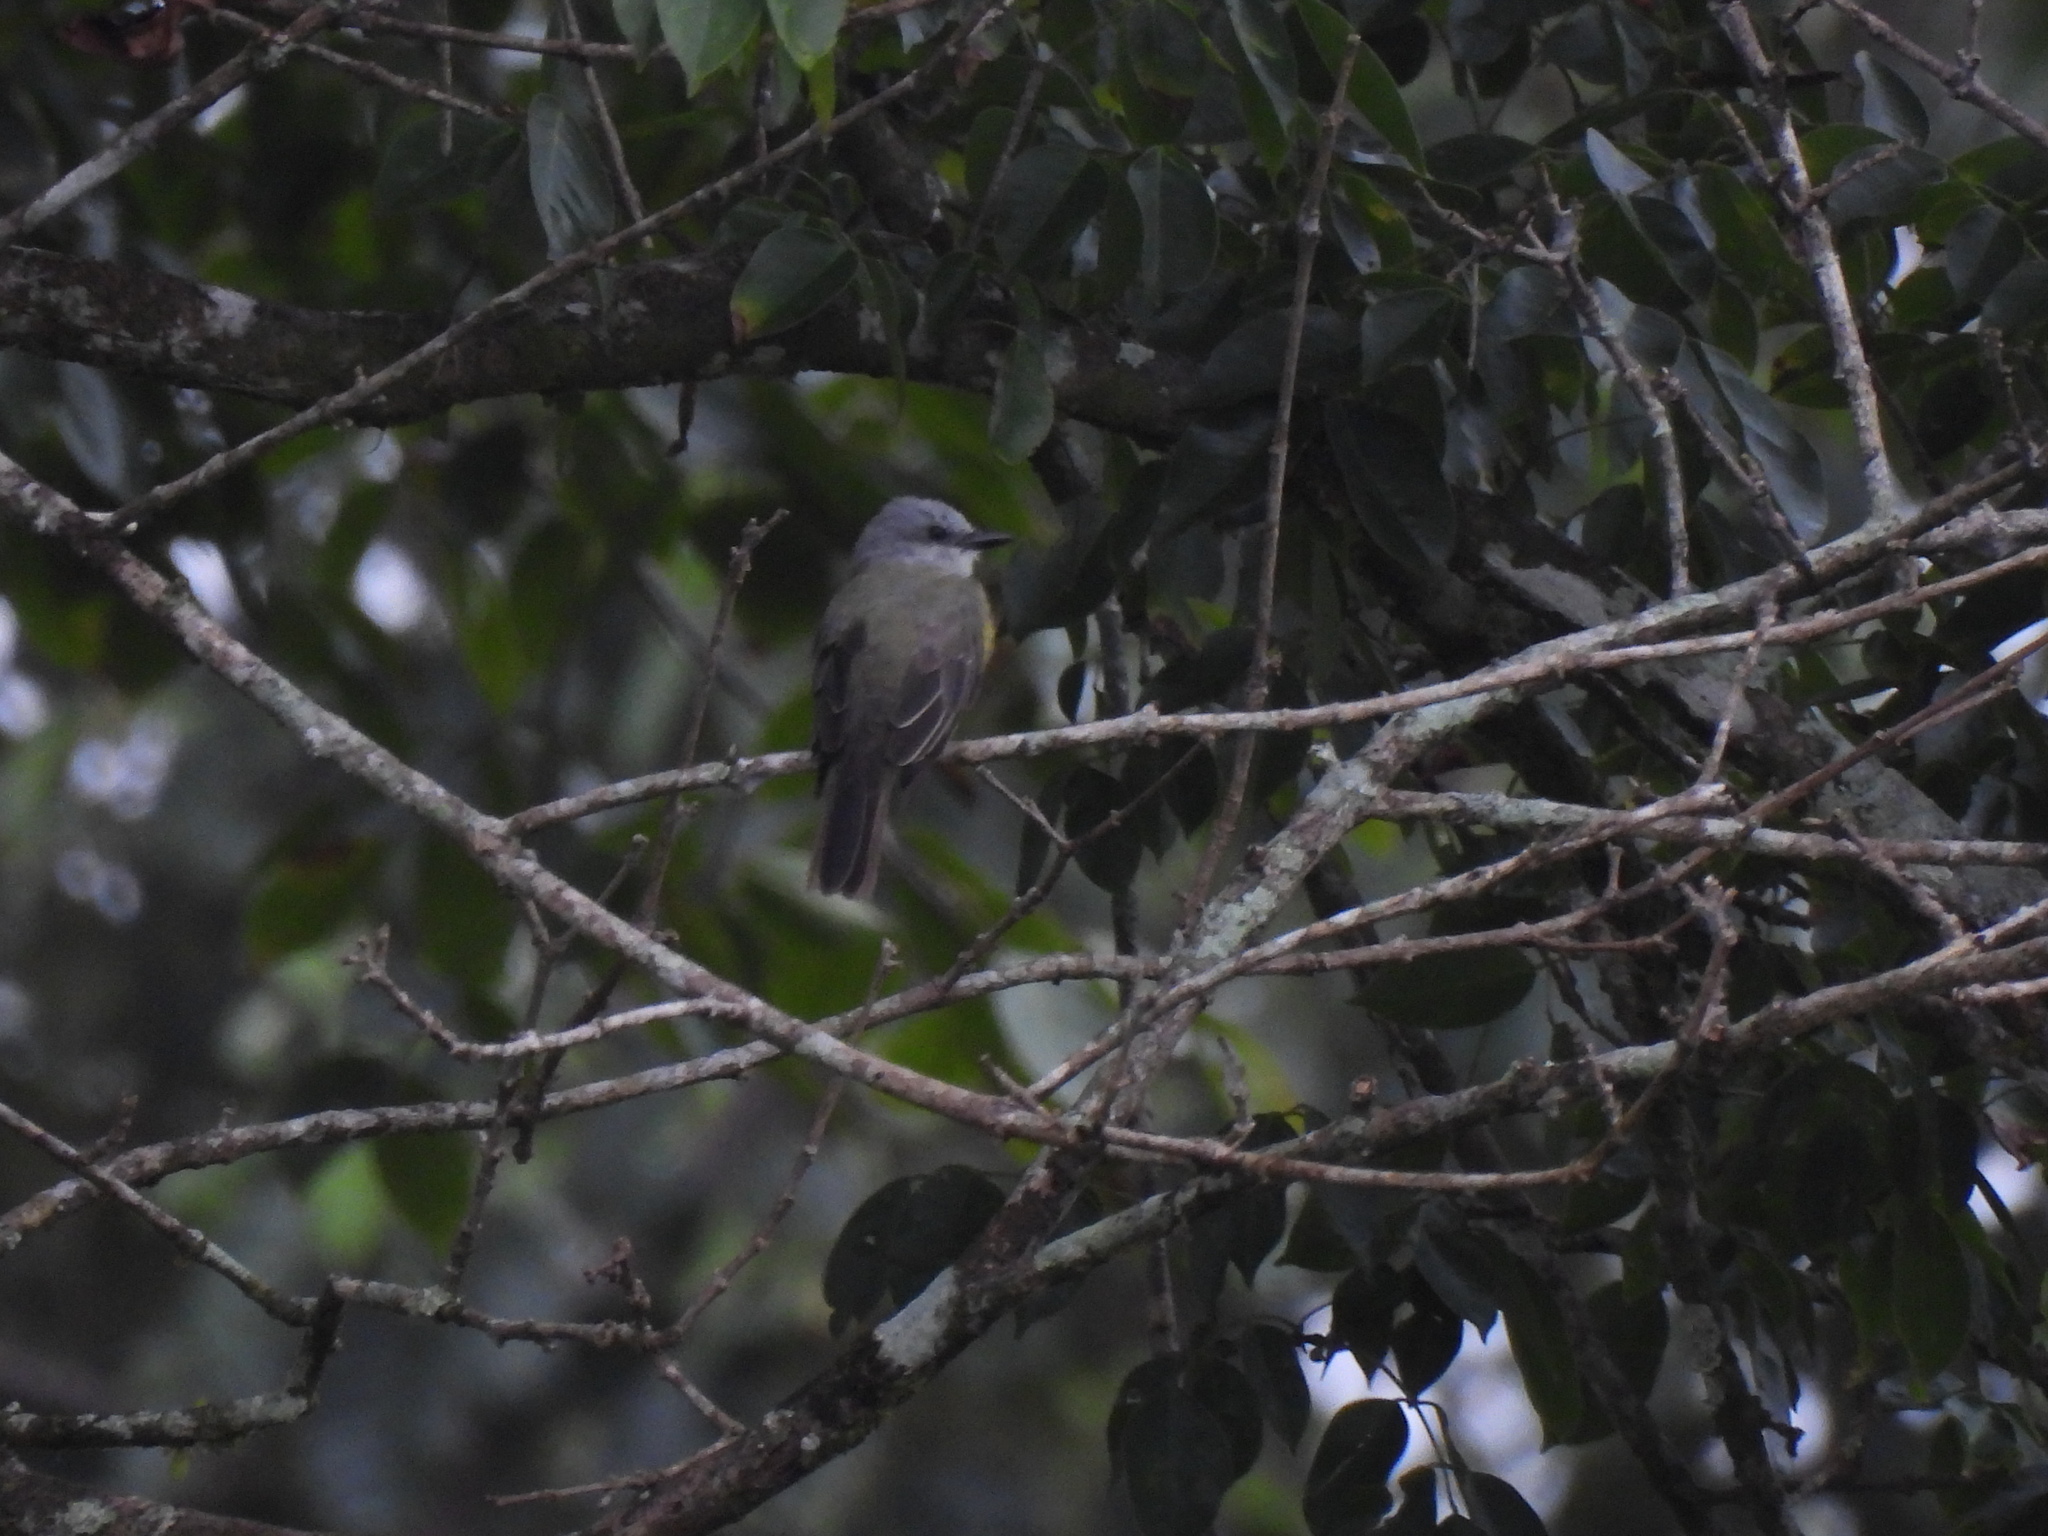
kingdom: Animalia
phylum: Chordata
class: Aves
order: Passeriformes
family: Tyrannidae
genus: Tyrannus
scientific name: Tyrannus melancholicus
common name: Tropical kingbird
